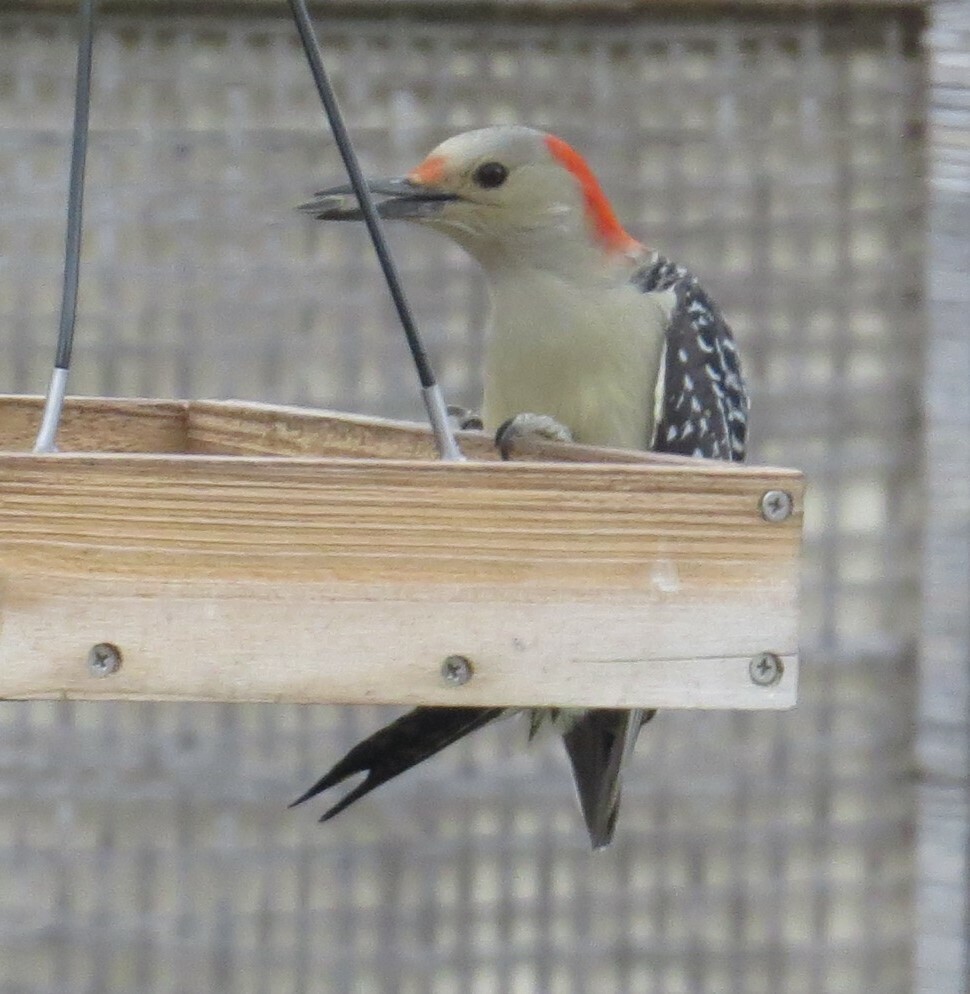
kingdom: Animalia
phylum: Chordata
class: Aves
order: Piciformes
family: Picidae
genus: Melanerpes
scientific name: Melanerpes carolinus
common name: Red-bellied woodpecker
